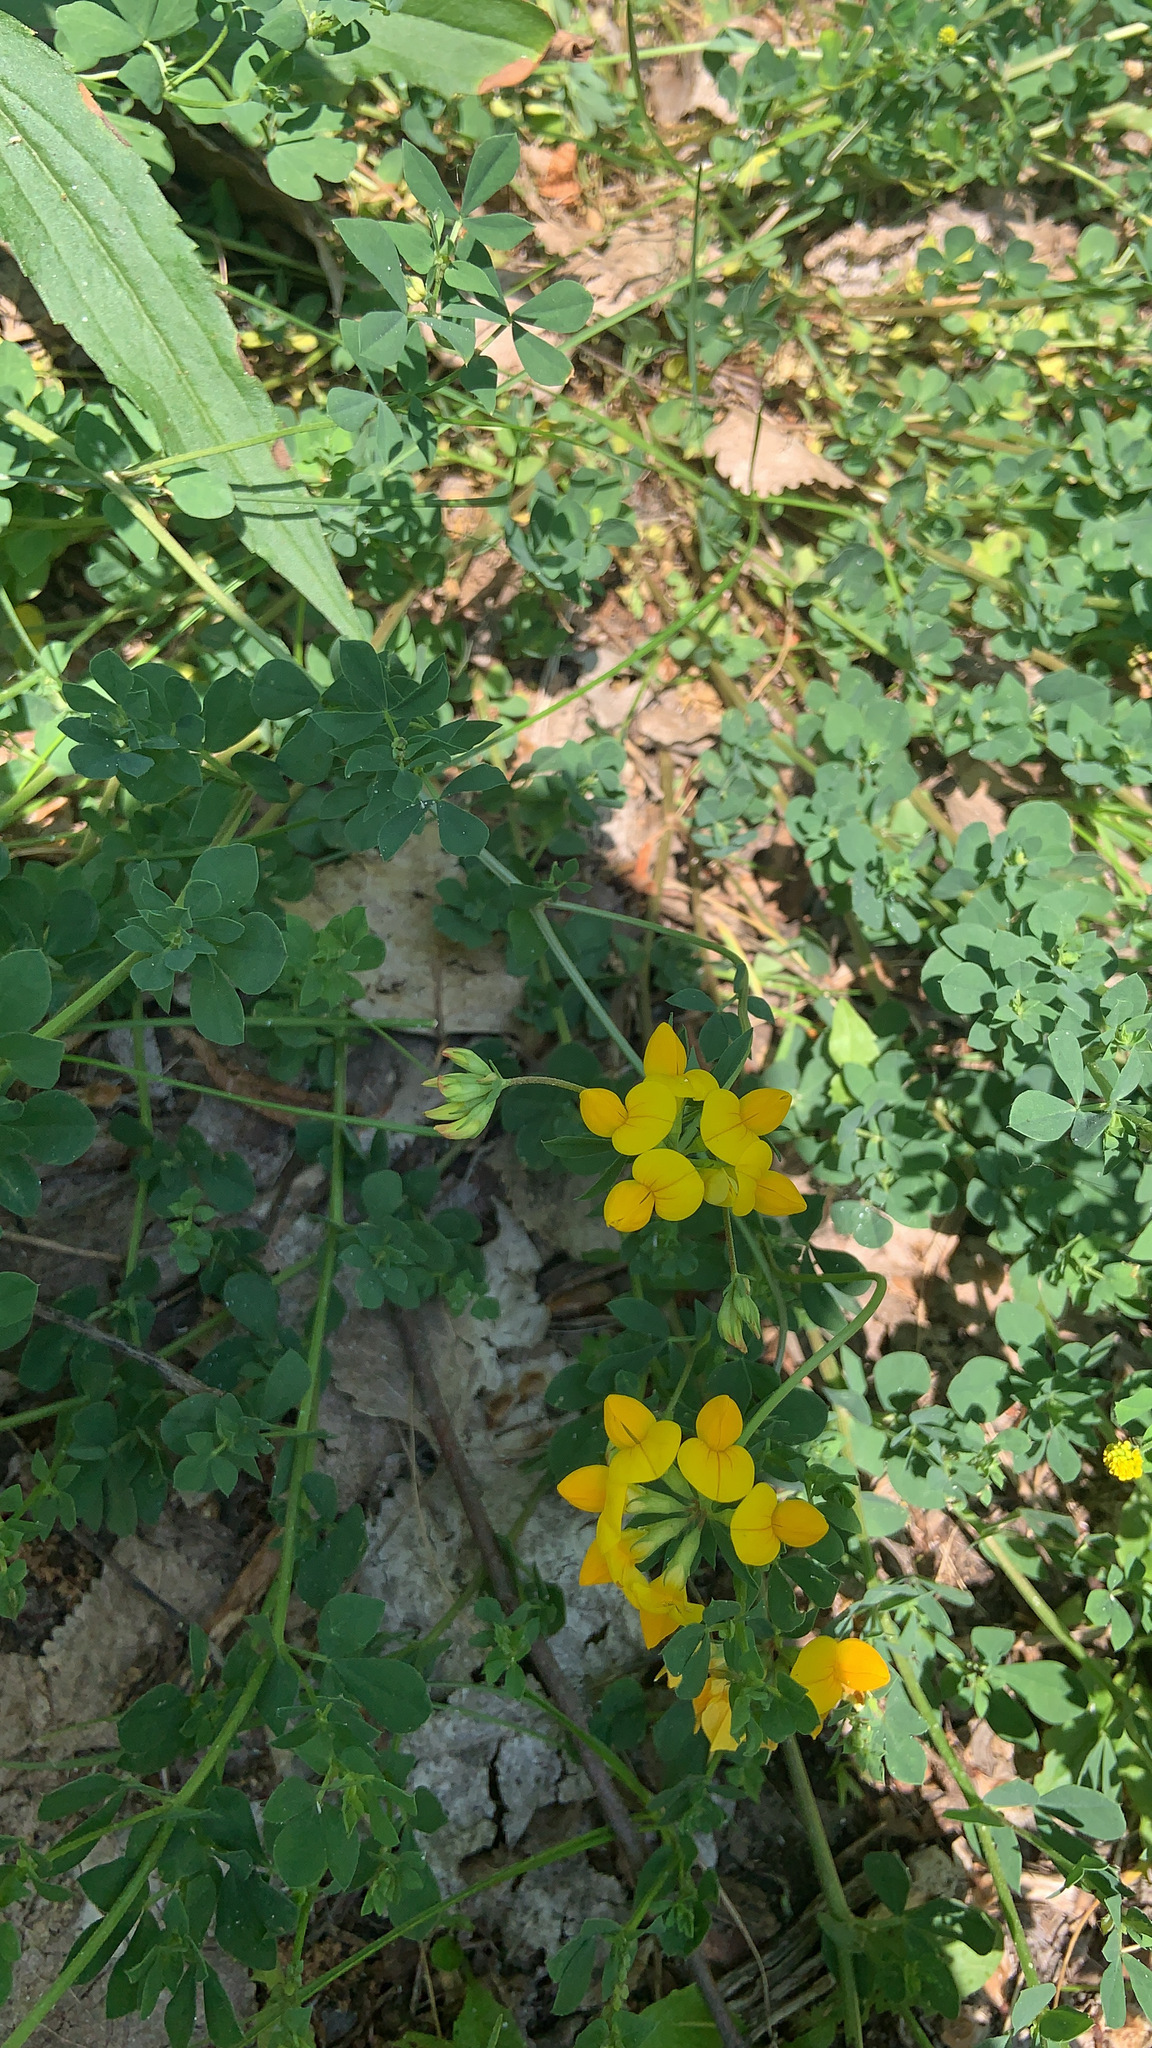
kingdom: Plantae
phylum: Tracheophyta
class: Magnoliopsida
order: Fabales
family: Fabaceae
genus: Lotus
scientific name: Lotus corniculatus
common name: Common bird's-foot-trefoil
